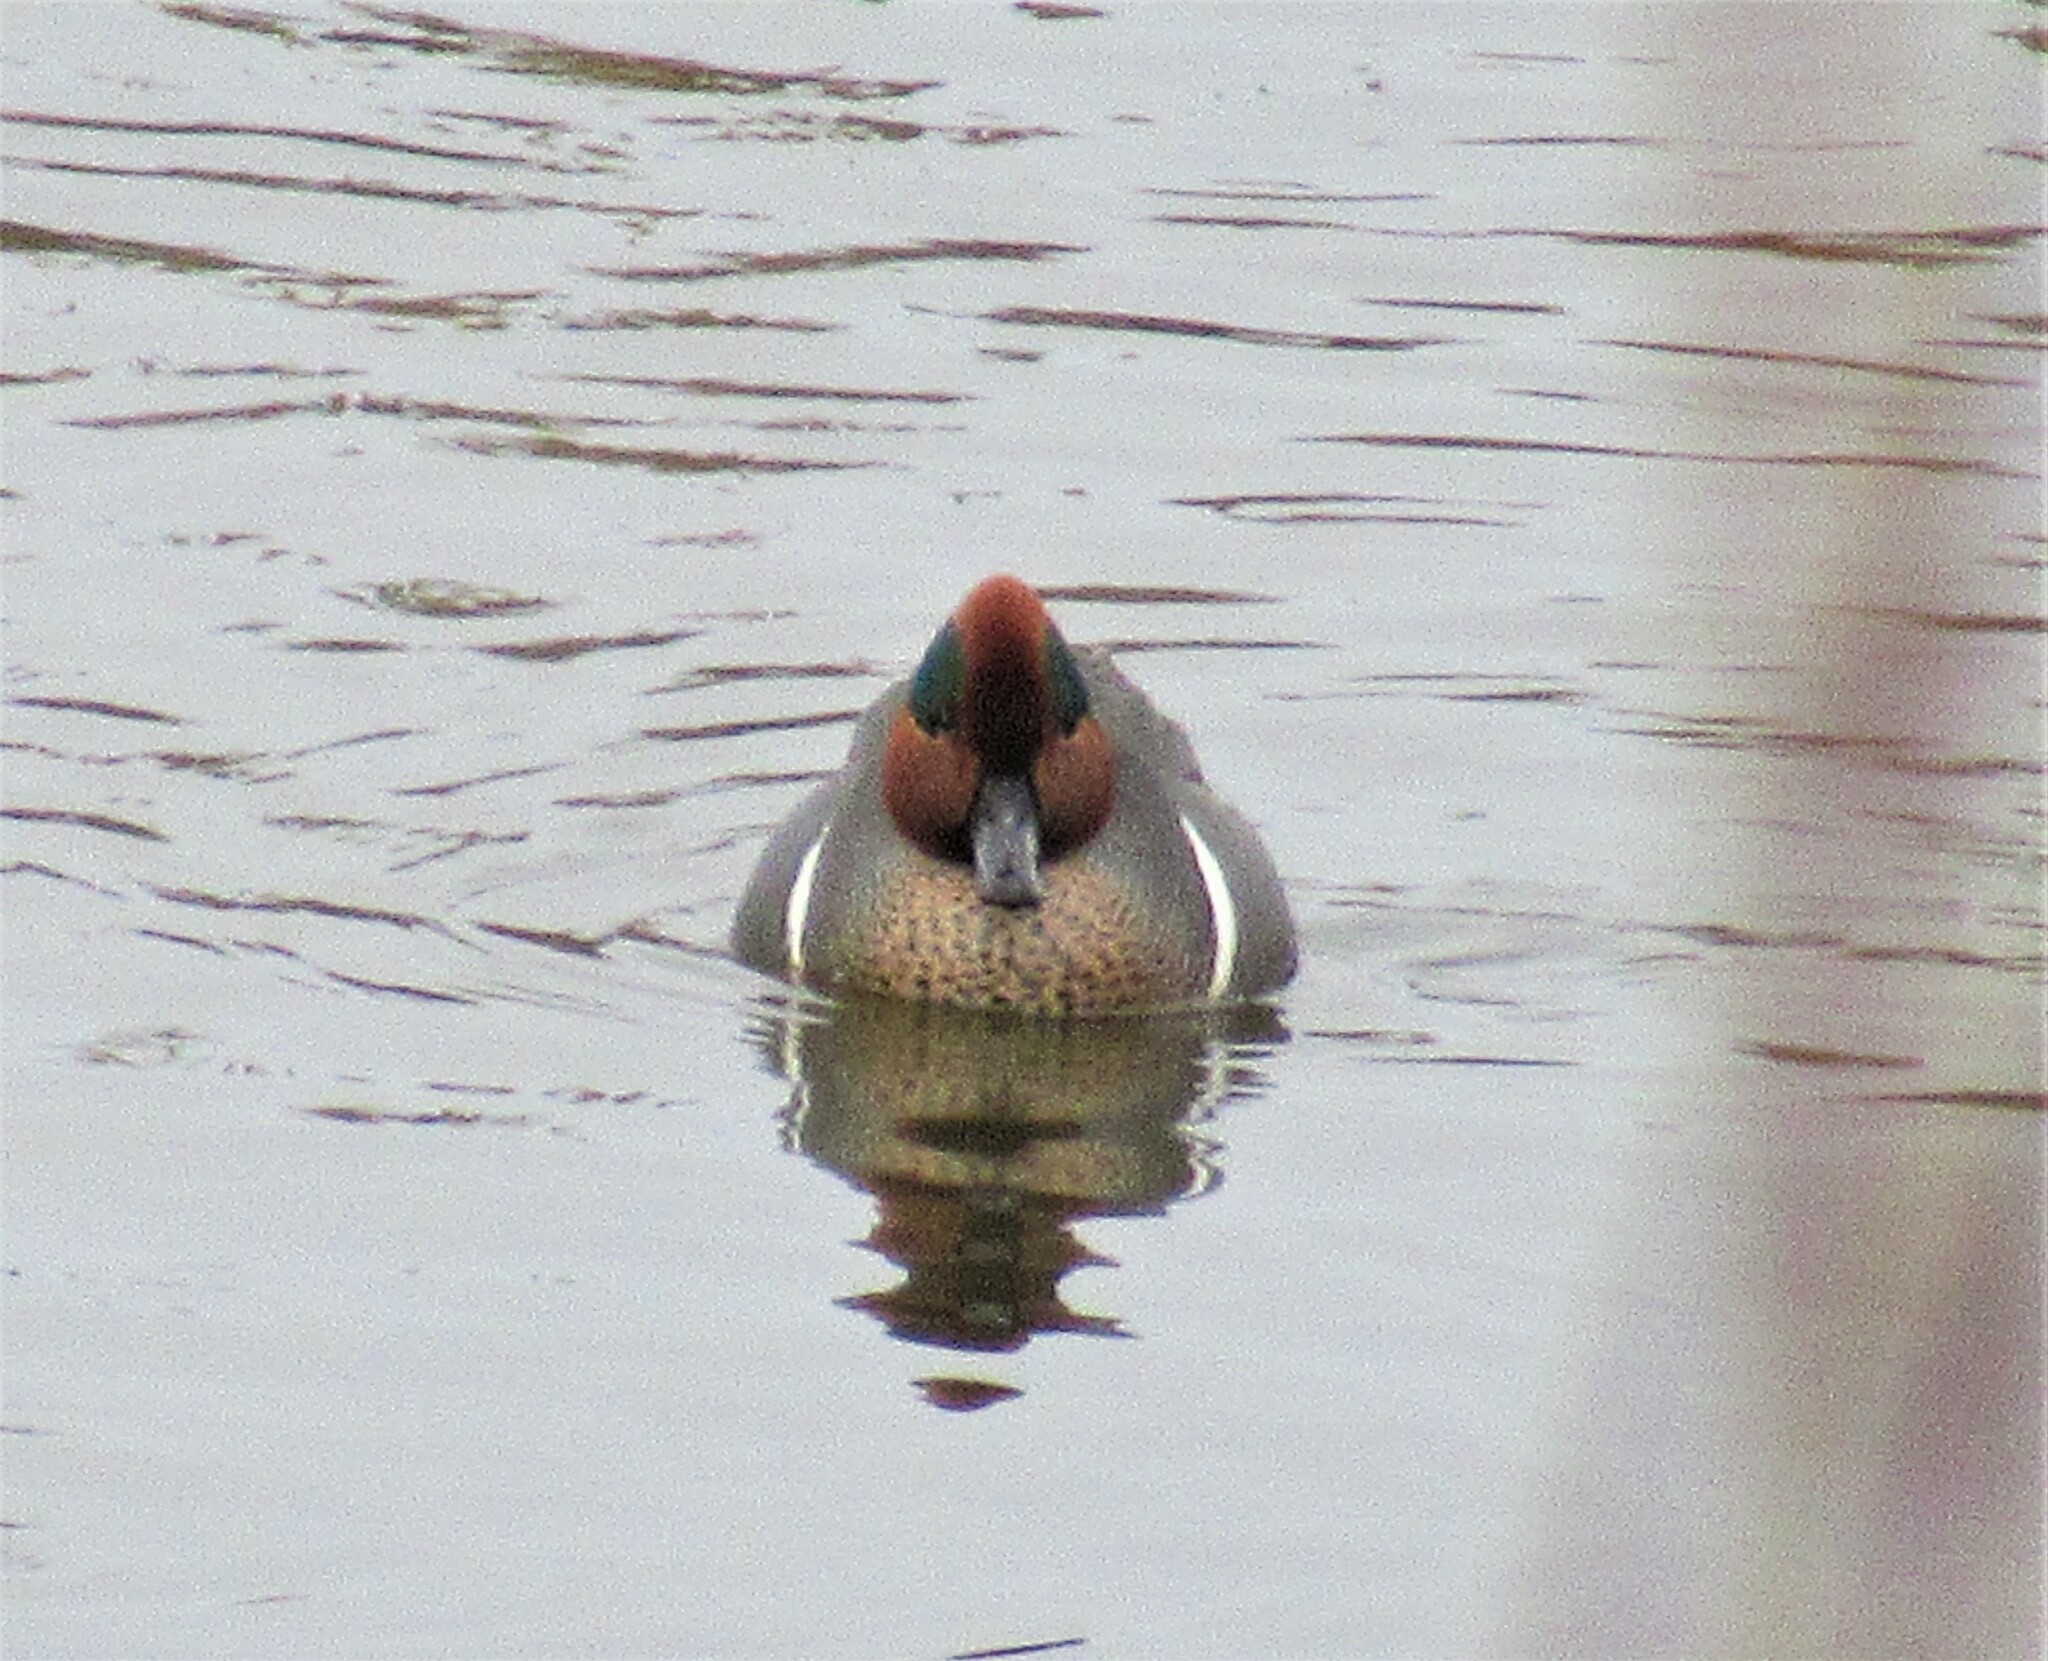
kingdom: Animalia
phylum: Chordata
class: Aves
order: Anseriformes
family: Anatidae
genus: Anas
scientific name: Anas crecca
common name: Eurasian teal
